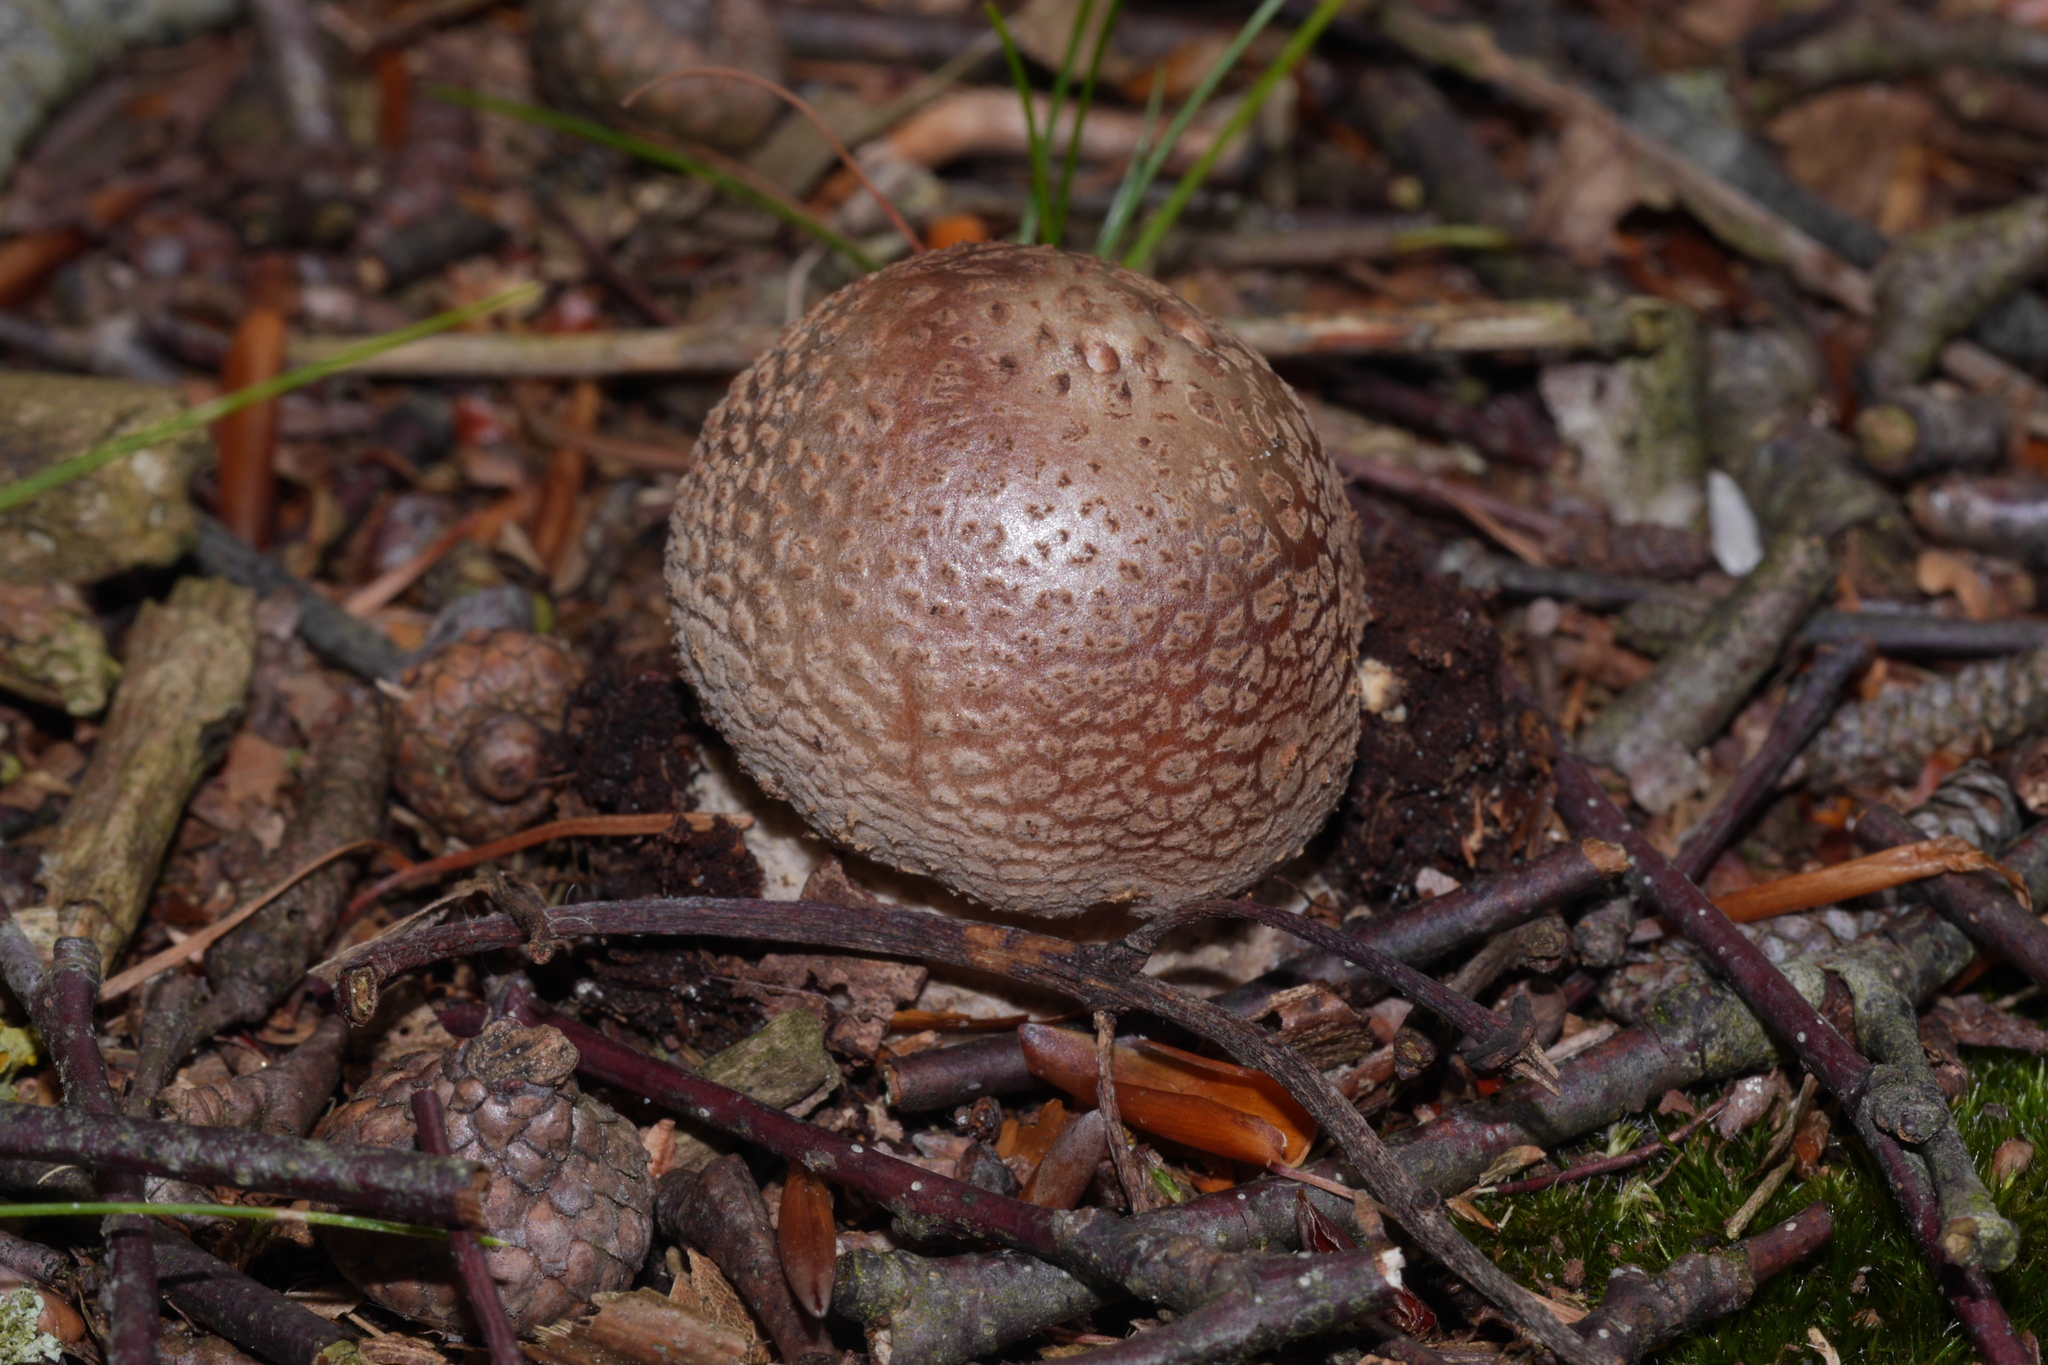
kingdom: Fungi
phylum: Basidiomycota
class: Agaricomycetes
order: Agaricales
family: Amanitaceae
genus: Amanita
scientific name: Amanita rubescens
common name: Blusher
